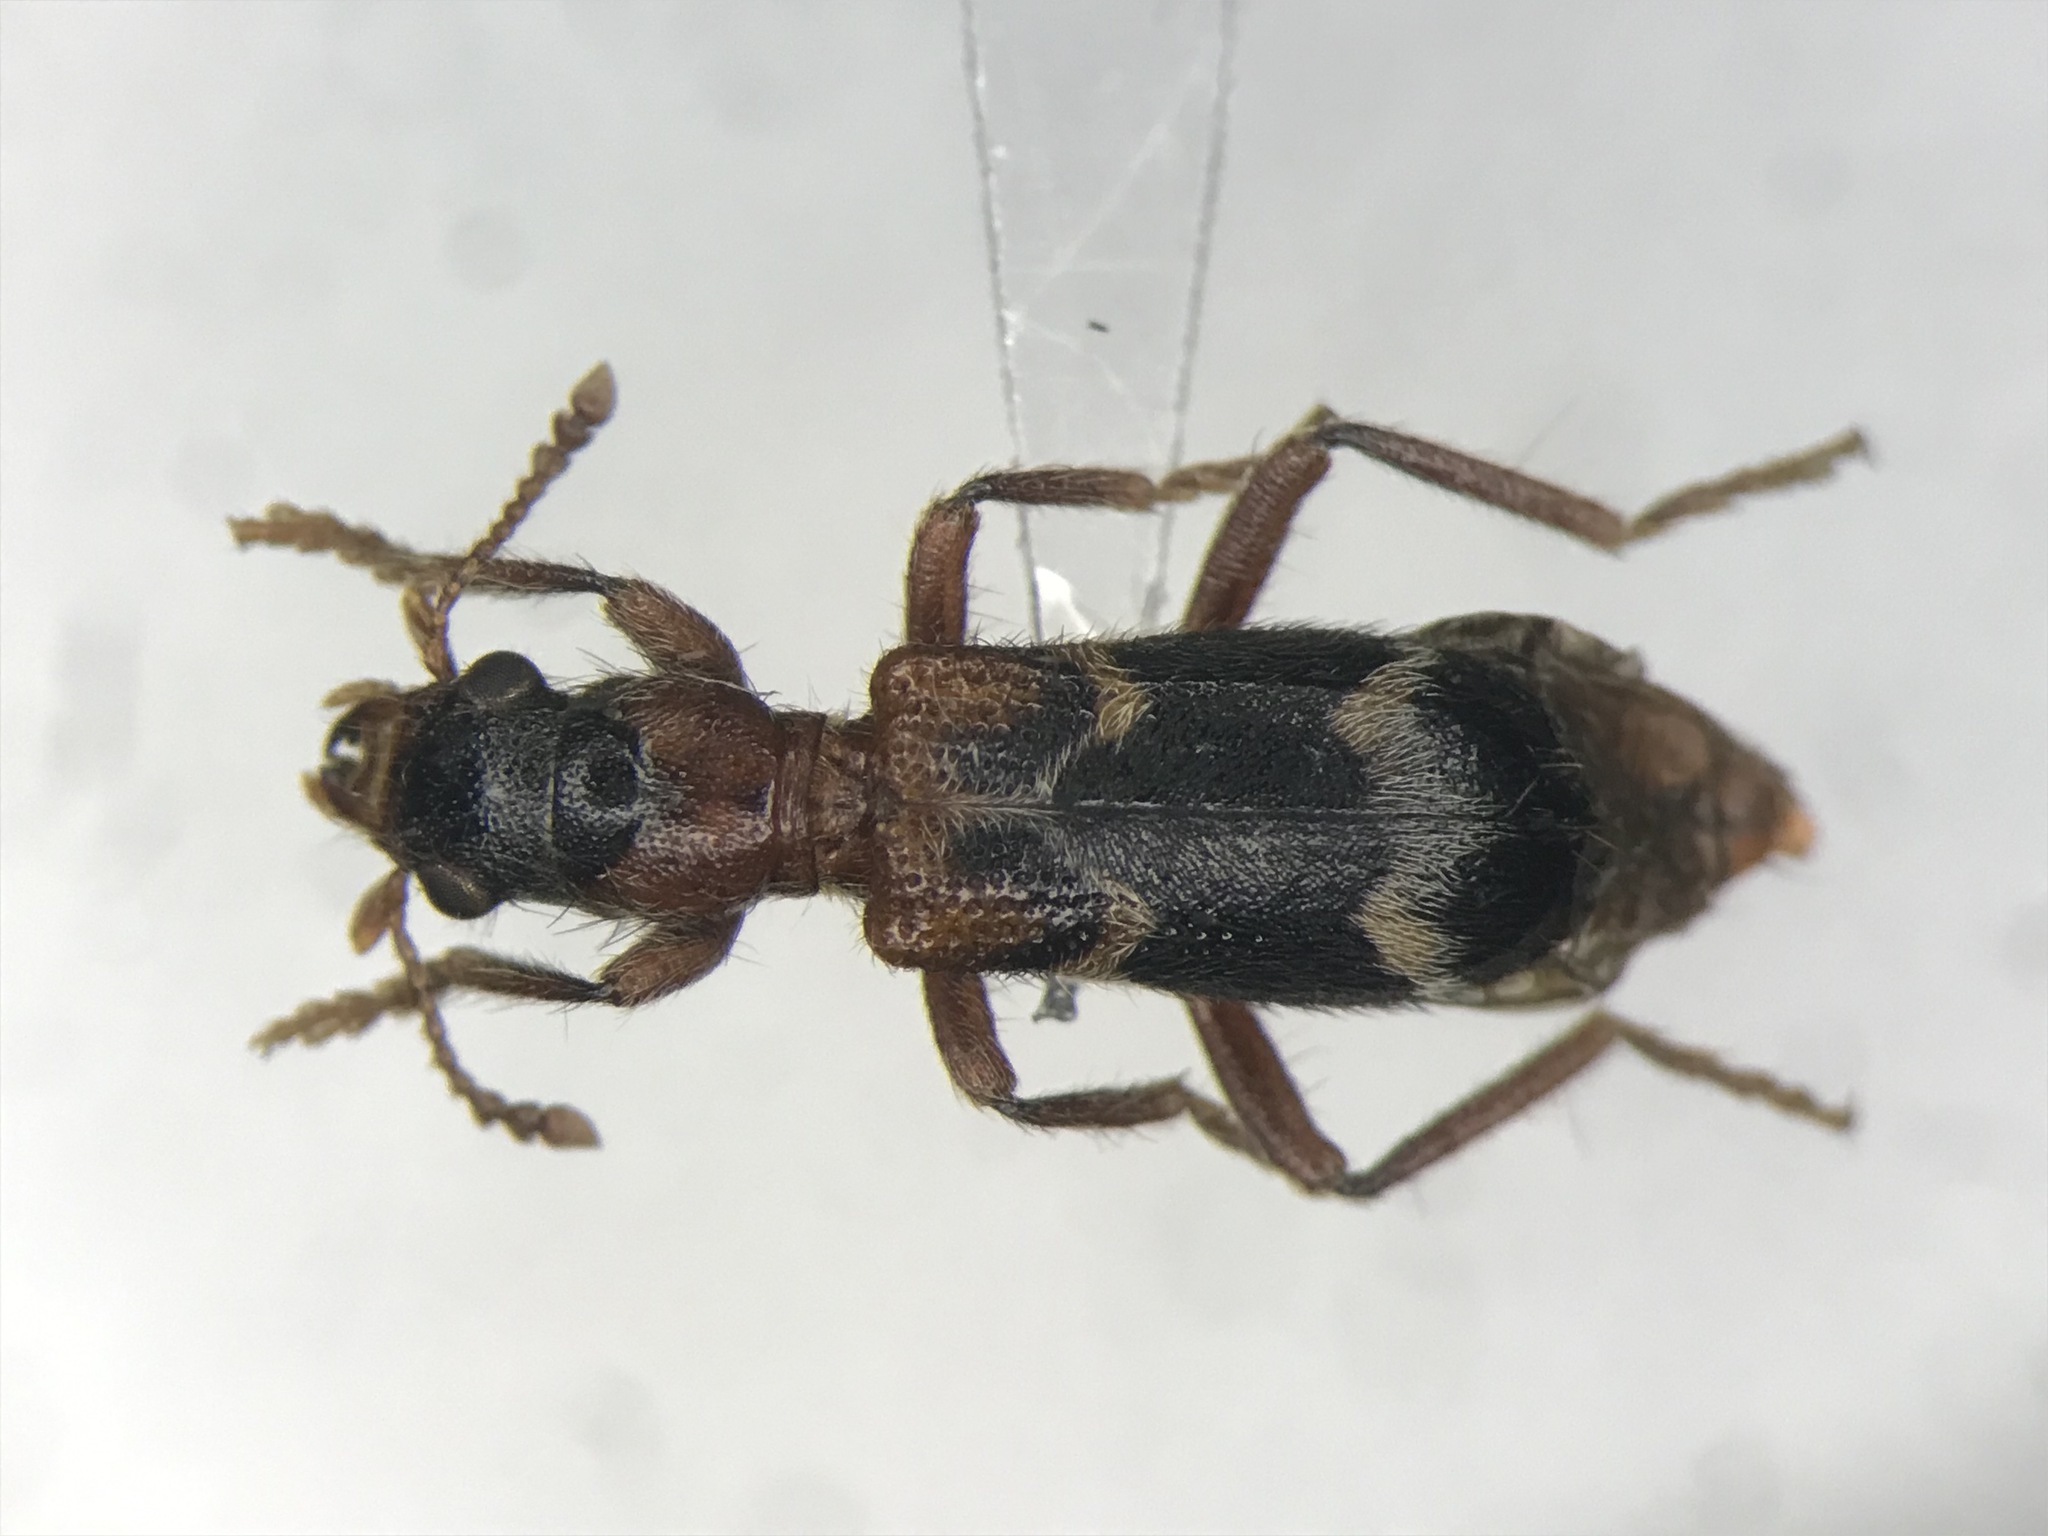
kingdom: Animalia
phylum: Arthropoda
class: Insecta
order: Coleoptera
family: Cleridae
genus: Thanasimus
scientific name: Thanasimus undatulus
